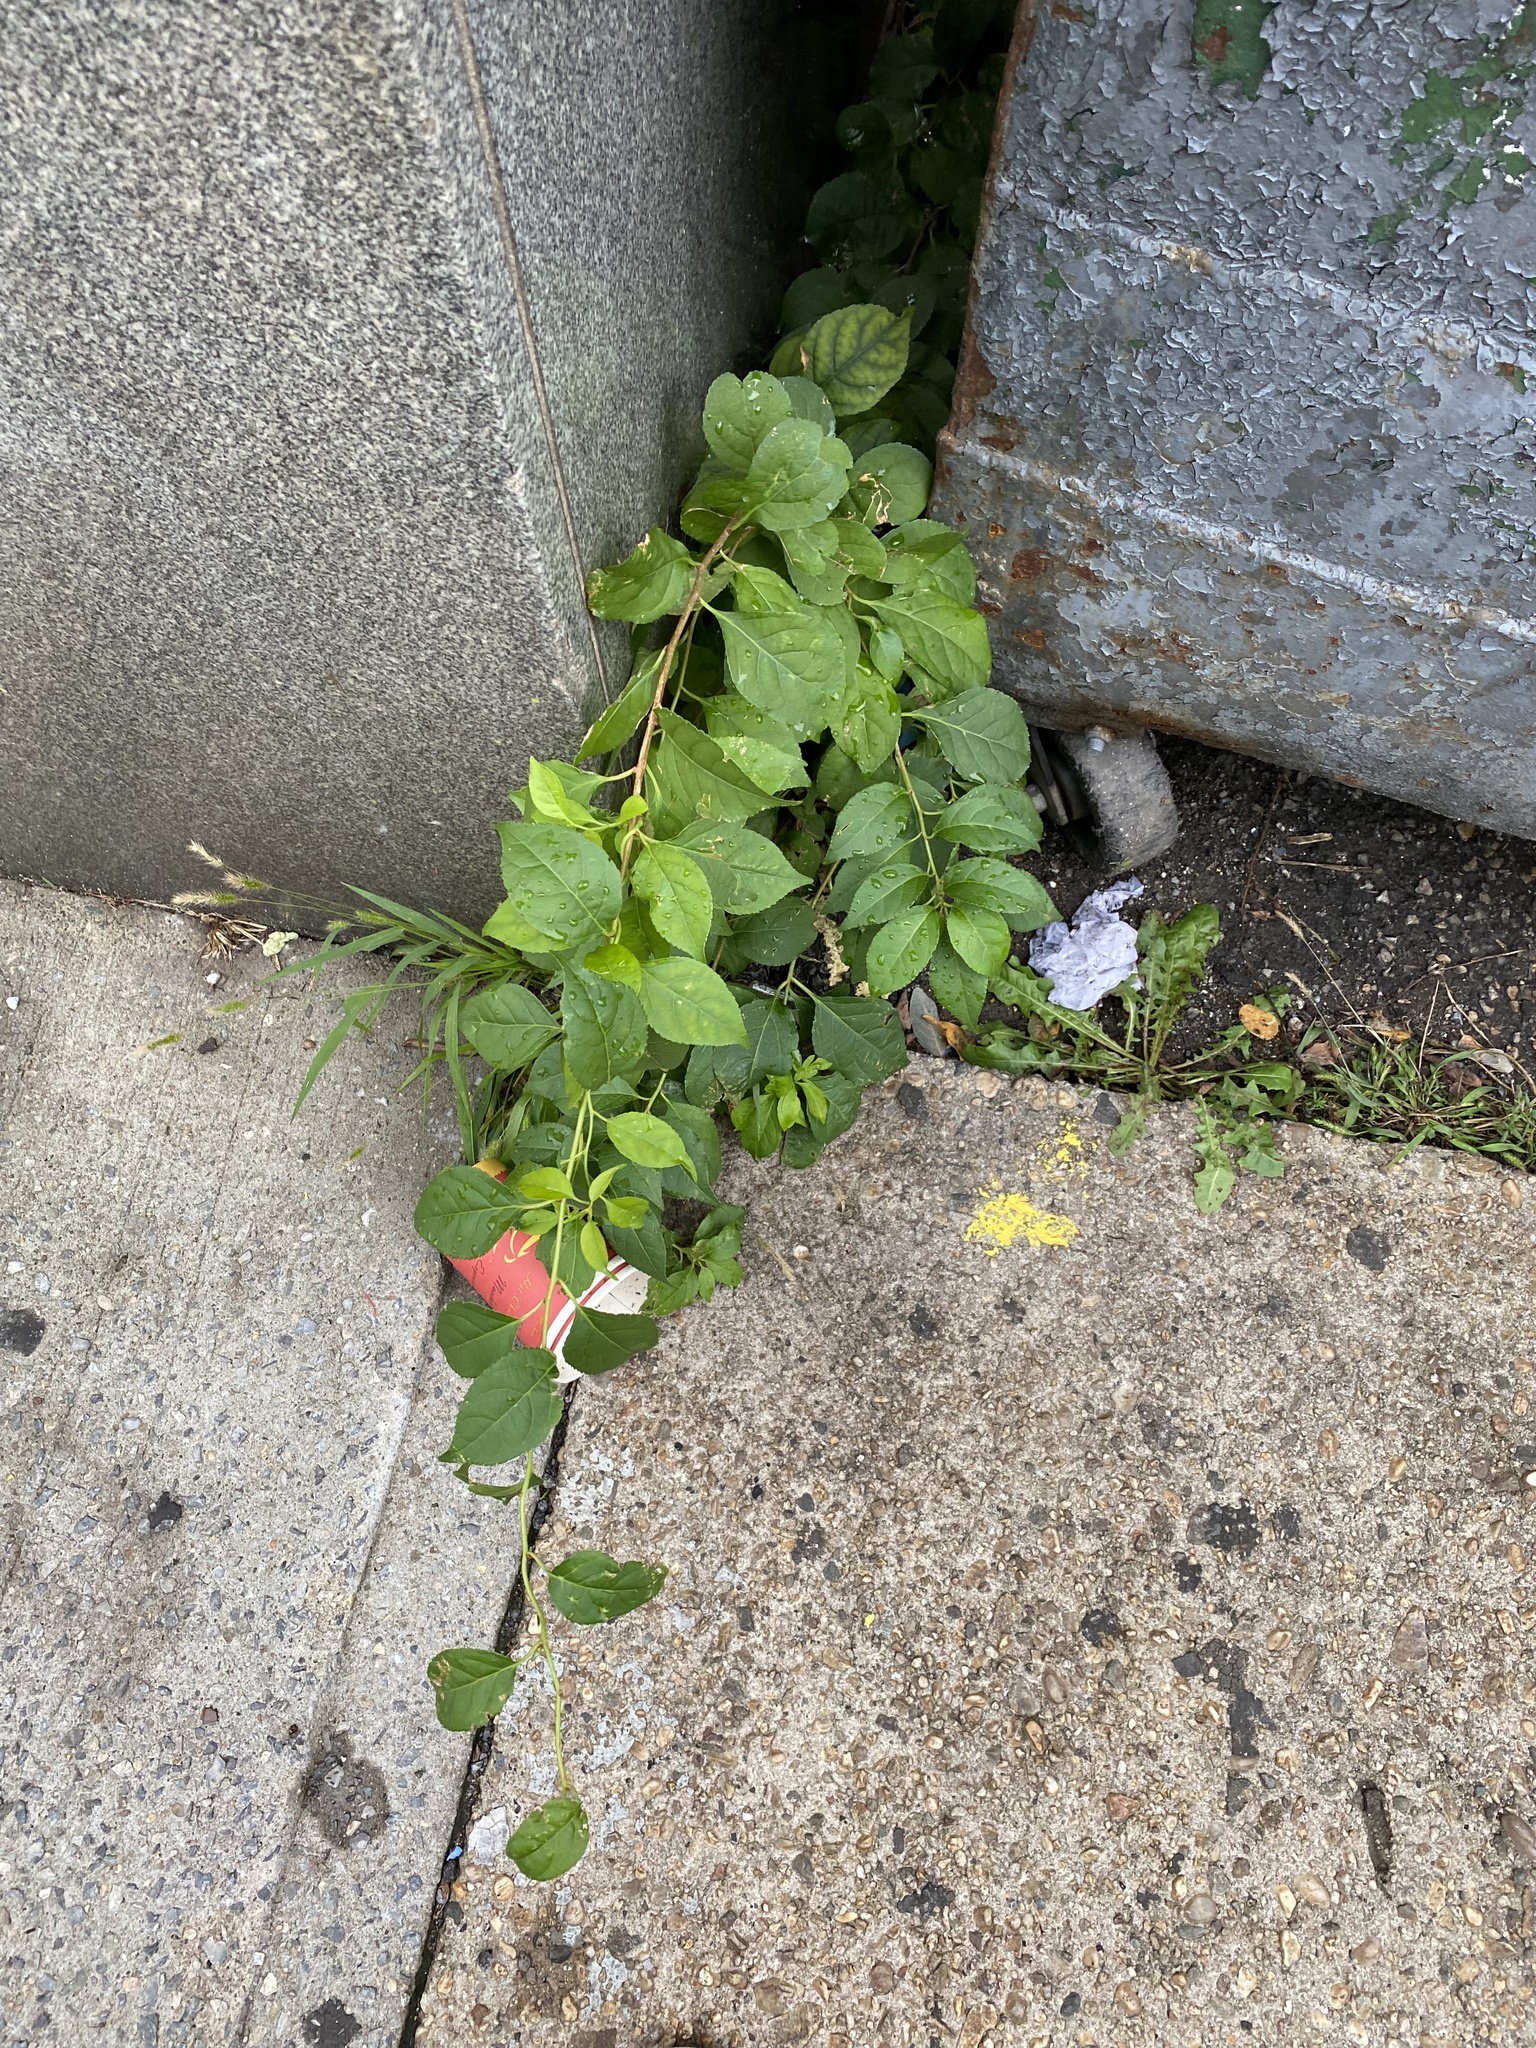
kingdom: Plantae
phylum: Tracheophyta
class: Magnoliopsida
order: Celastrales
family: Celastraceae
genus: Celastrus
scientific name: Celastrus orbiculatus
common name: Oriental bittersweet
